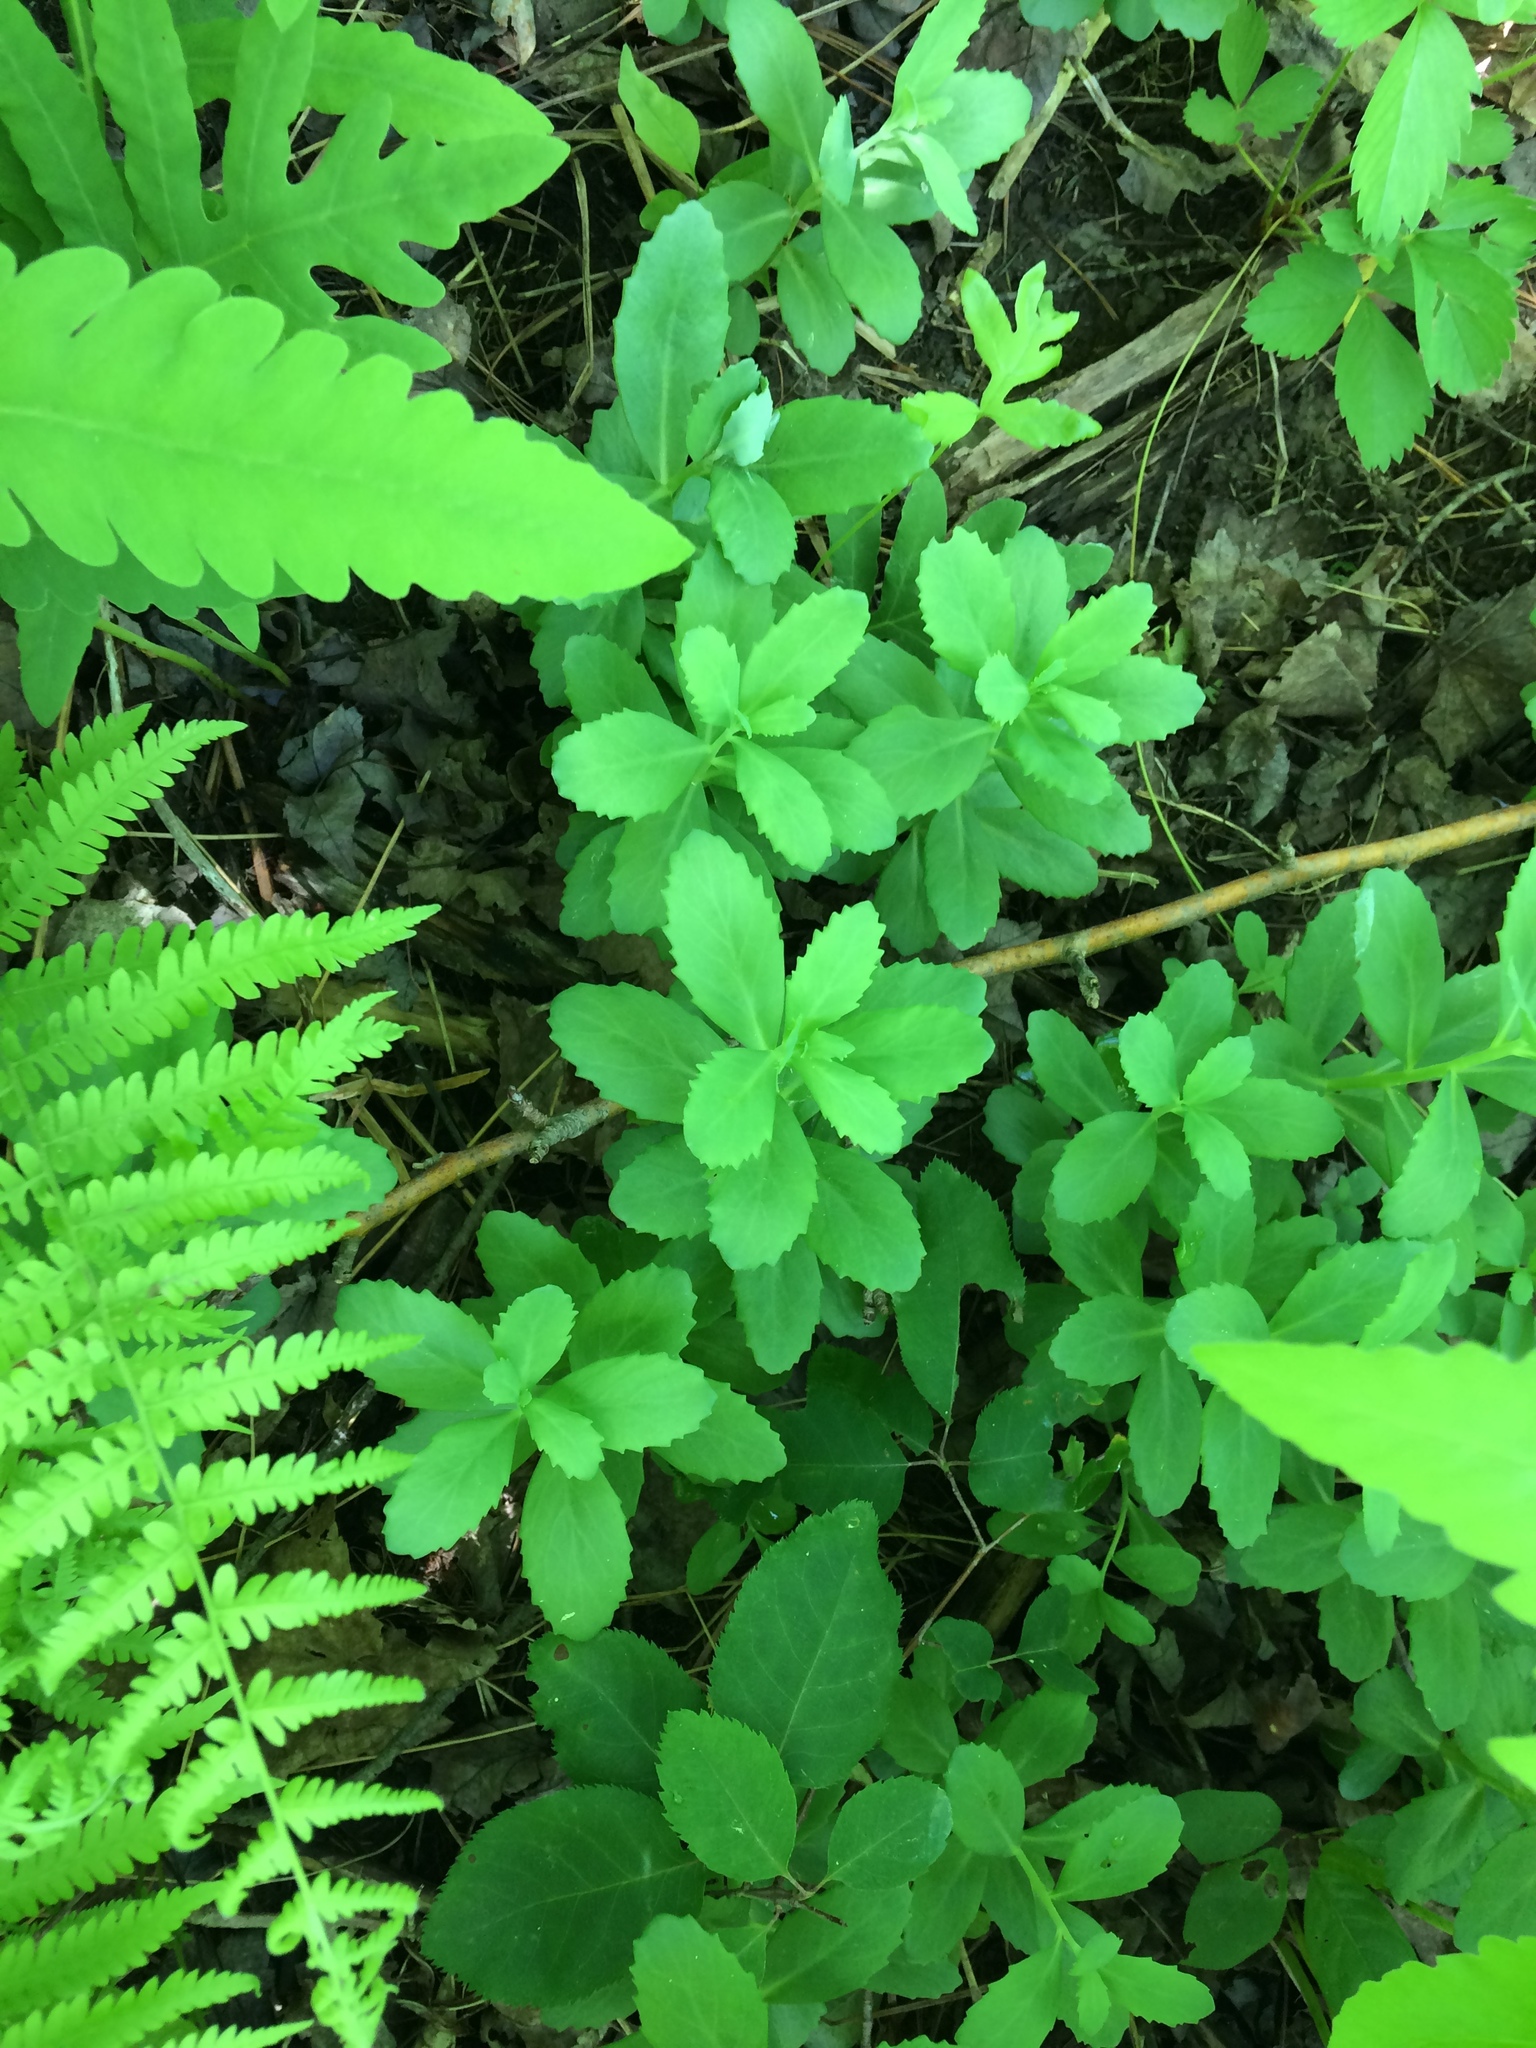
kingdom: Plantae
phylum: Tracheophyta
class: Magnoliopsida
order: Saxifragales
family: Crassulaceae
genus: Hylotelephium
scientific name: Hylotelephium telephium
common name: Live-forever
